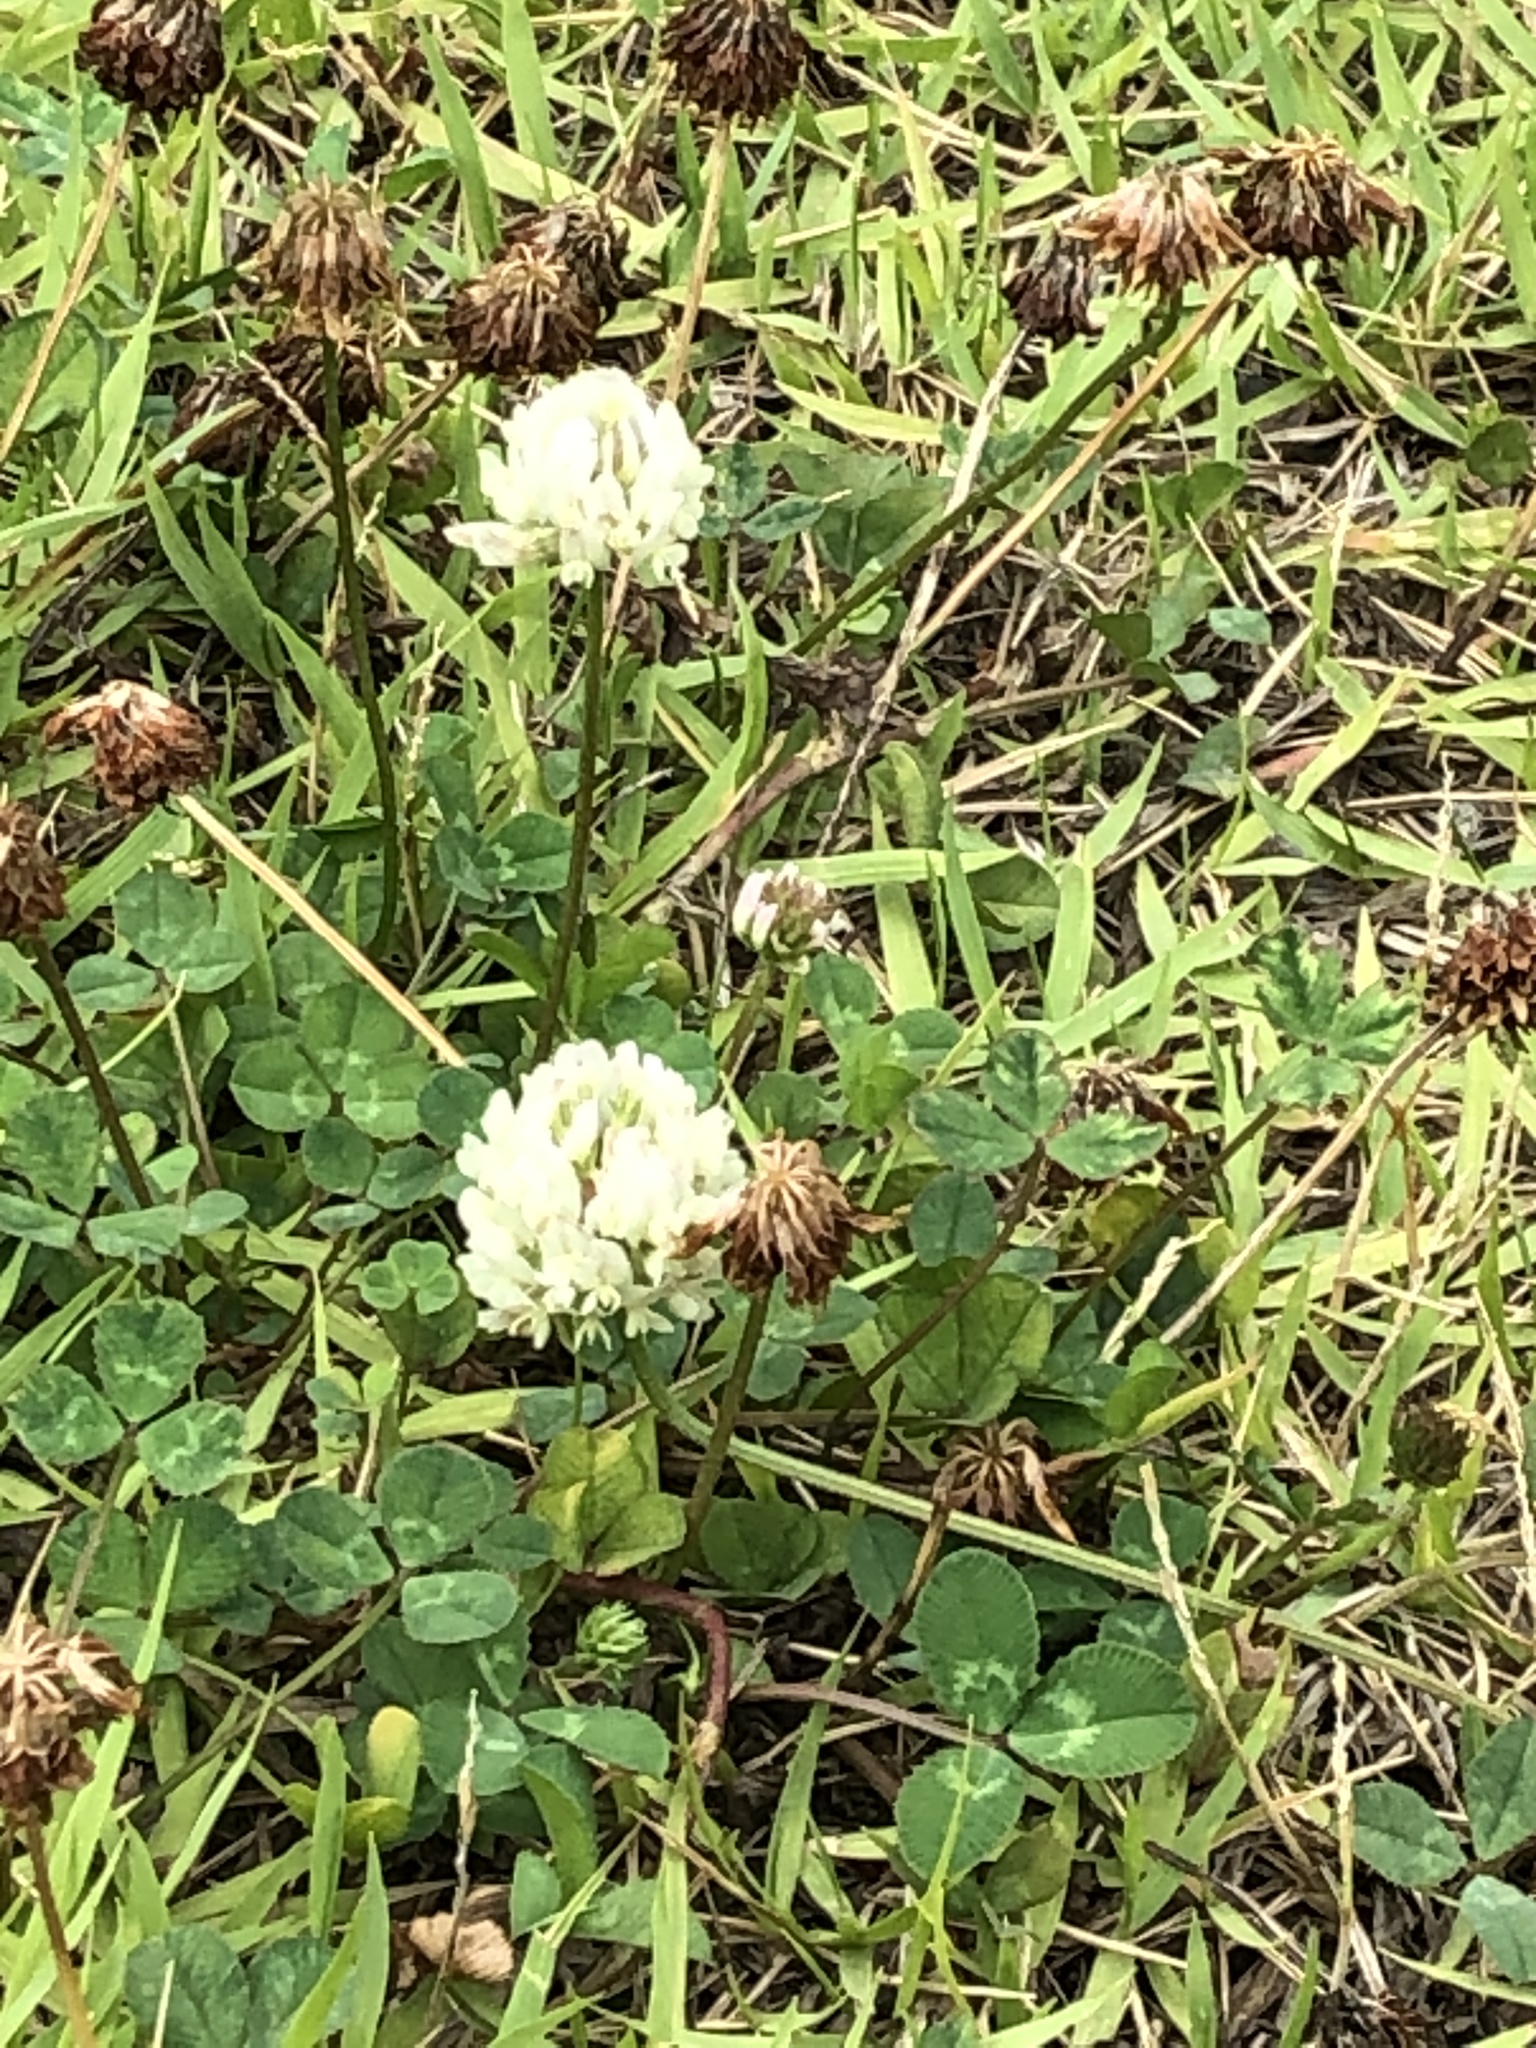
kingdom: Plantae
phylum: Tracheophyta
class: Magnoliopsida
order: Fabales
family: Fabaceae
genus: Trifolium
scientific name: Trifolium repens
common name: White clover
